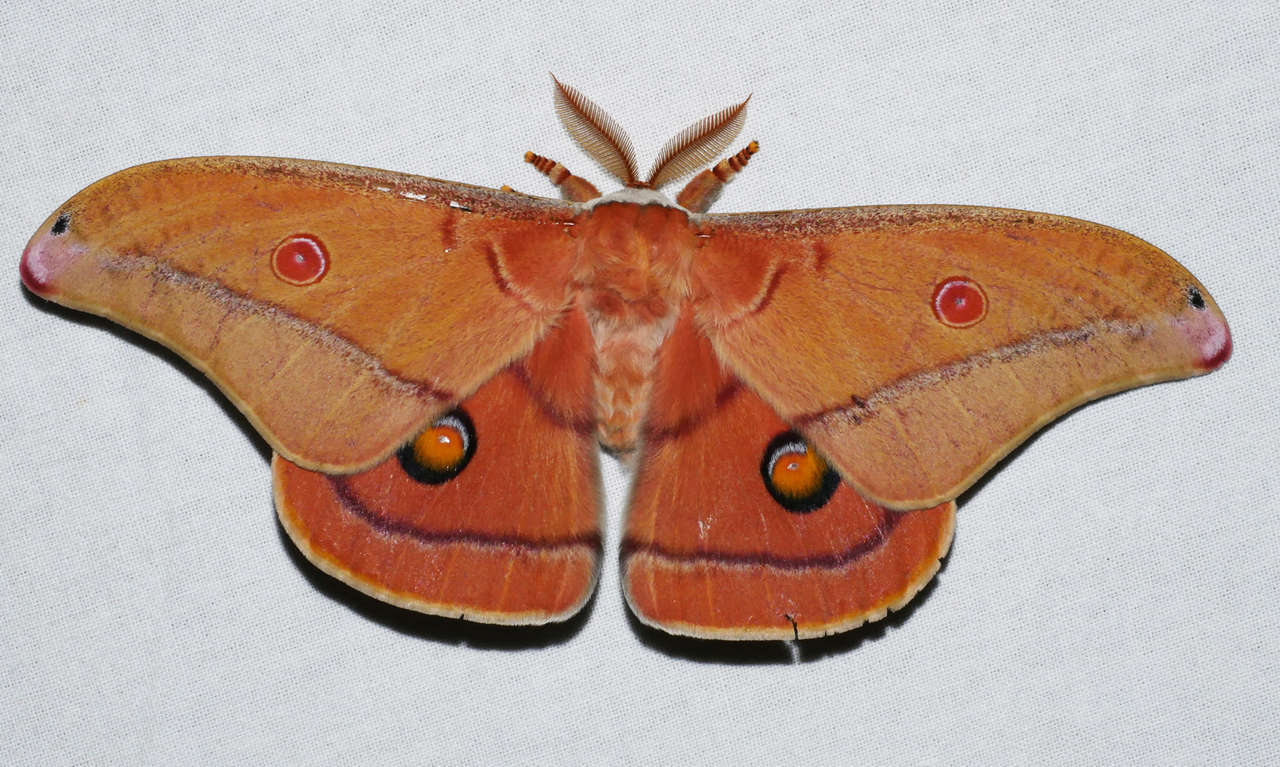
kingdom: Animalia
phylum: Arthropoda
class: Insecta
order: Lepidoptera
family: Saturniidae
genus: Opodiphthera
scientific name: Opodiphthera
